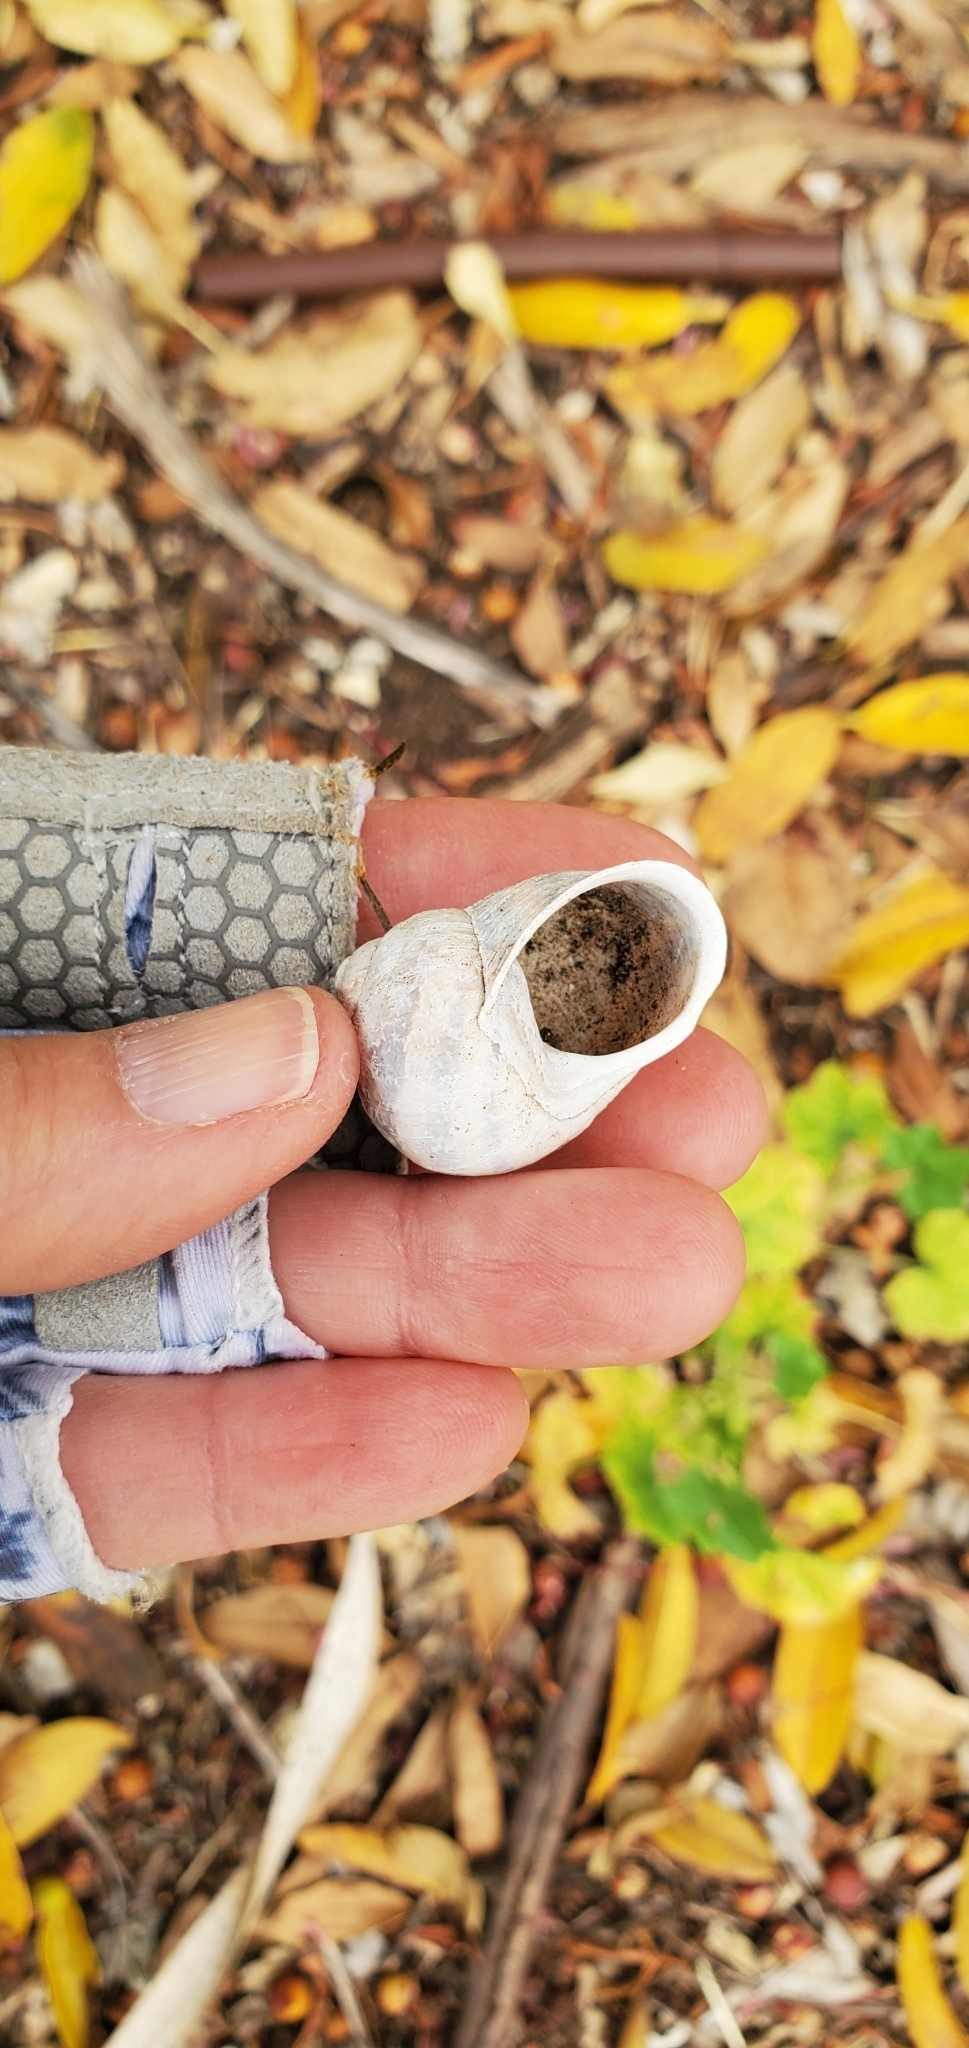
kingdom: Animalia
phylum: Mollusca
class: Gastropoda
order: Stylommatophora
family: Helicidae
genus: Otala
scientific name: Otala lactea
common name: Milk snail
